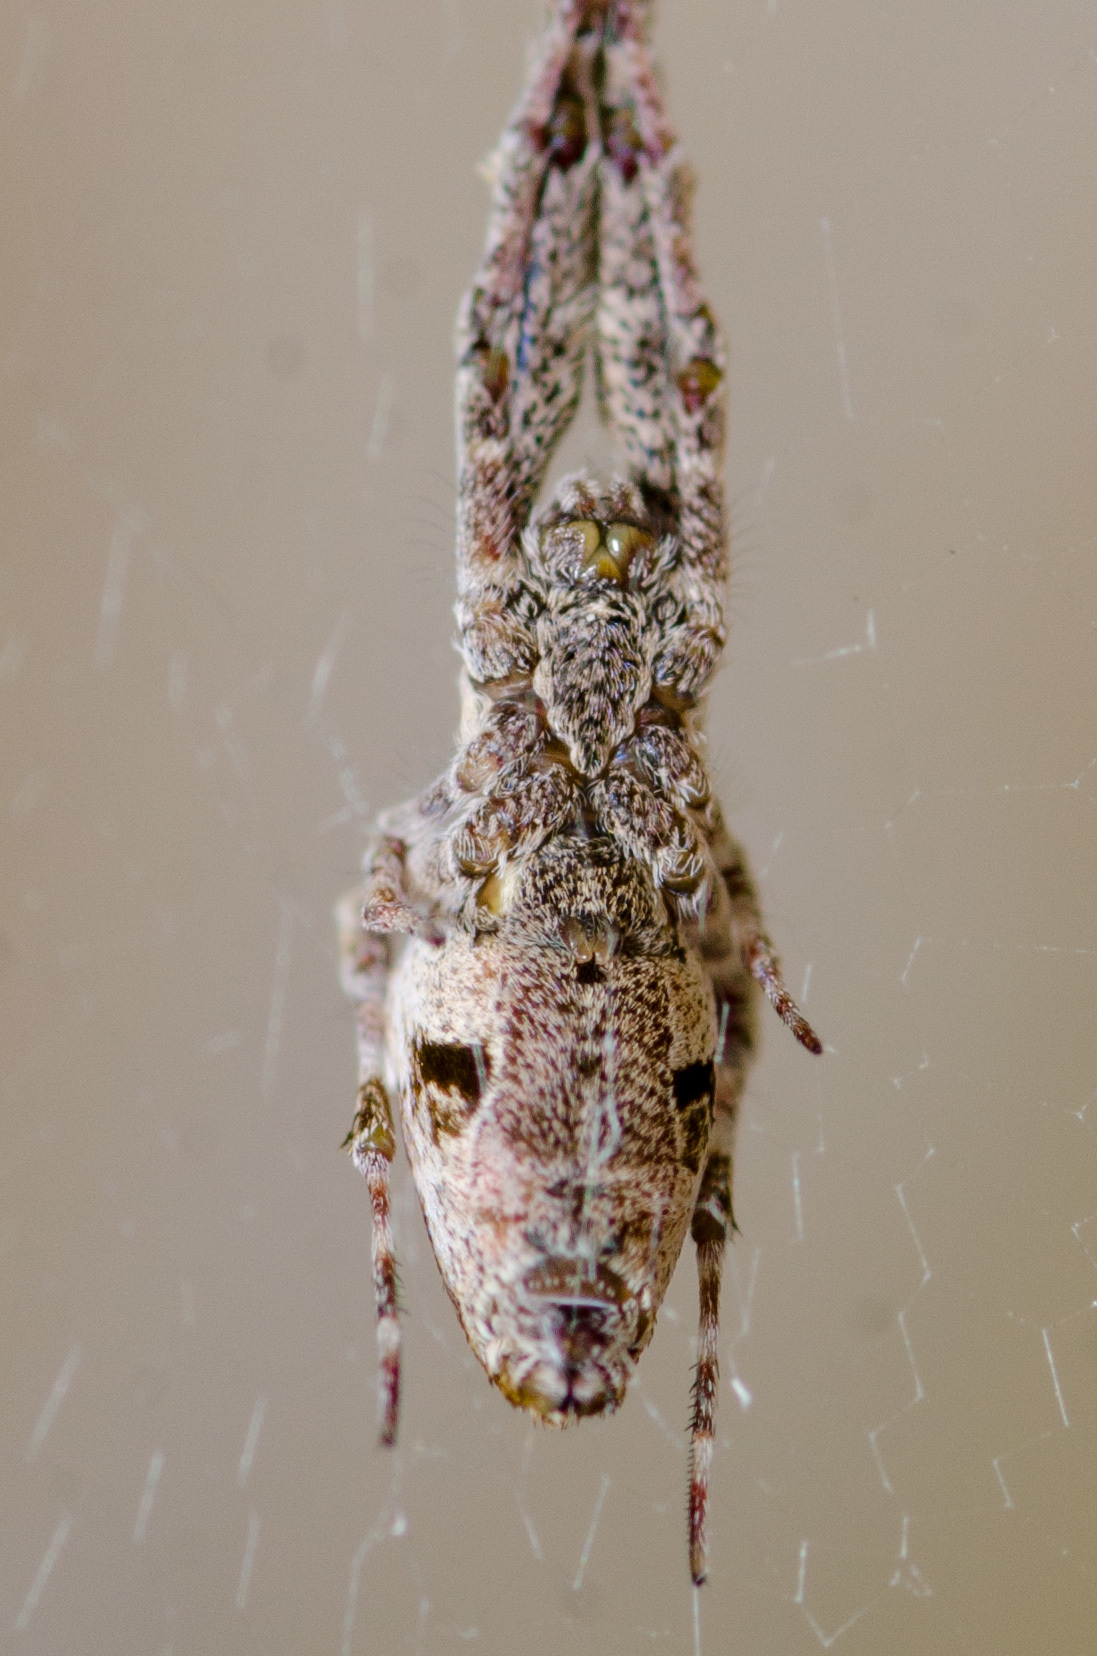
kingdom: Animalia
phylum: Arthropoda
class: Arachnida
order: Araneae
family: Uloboridae
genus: Uloborus
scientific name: Uloborus glomosus
